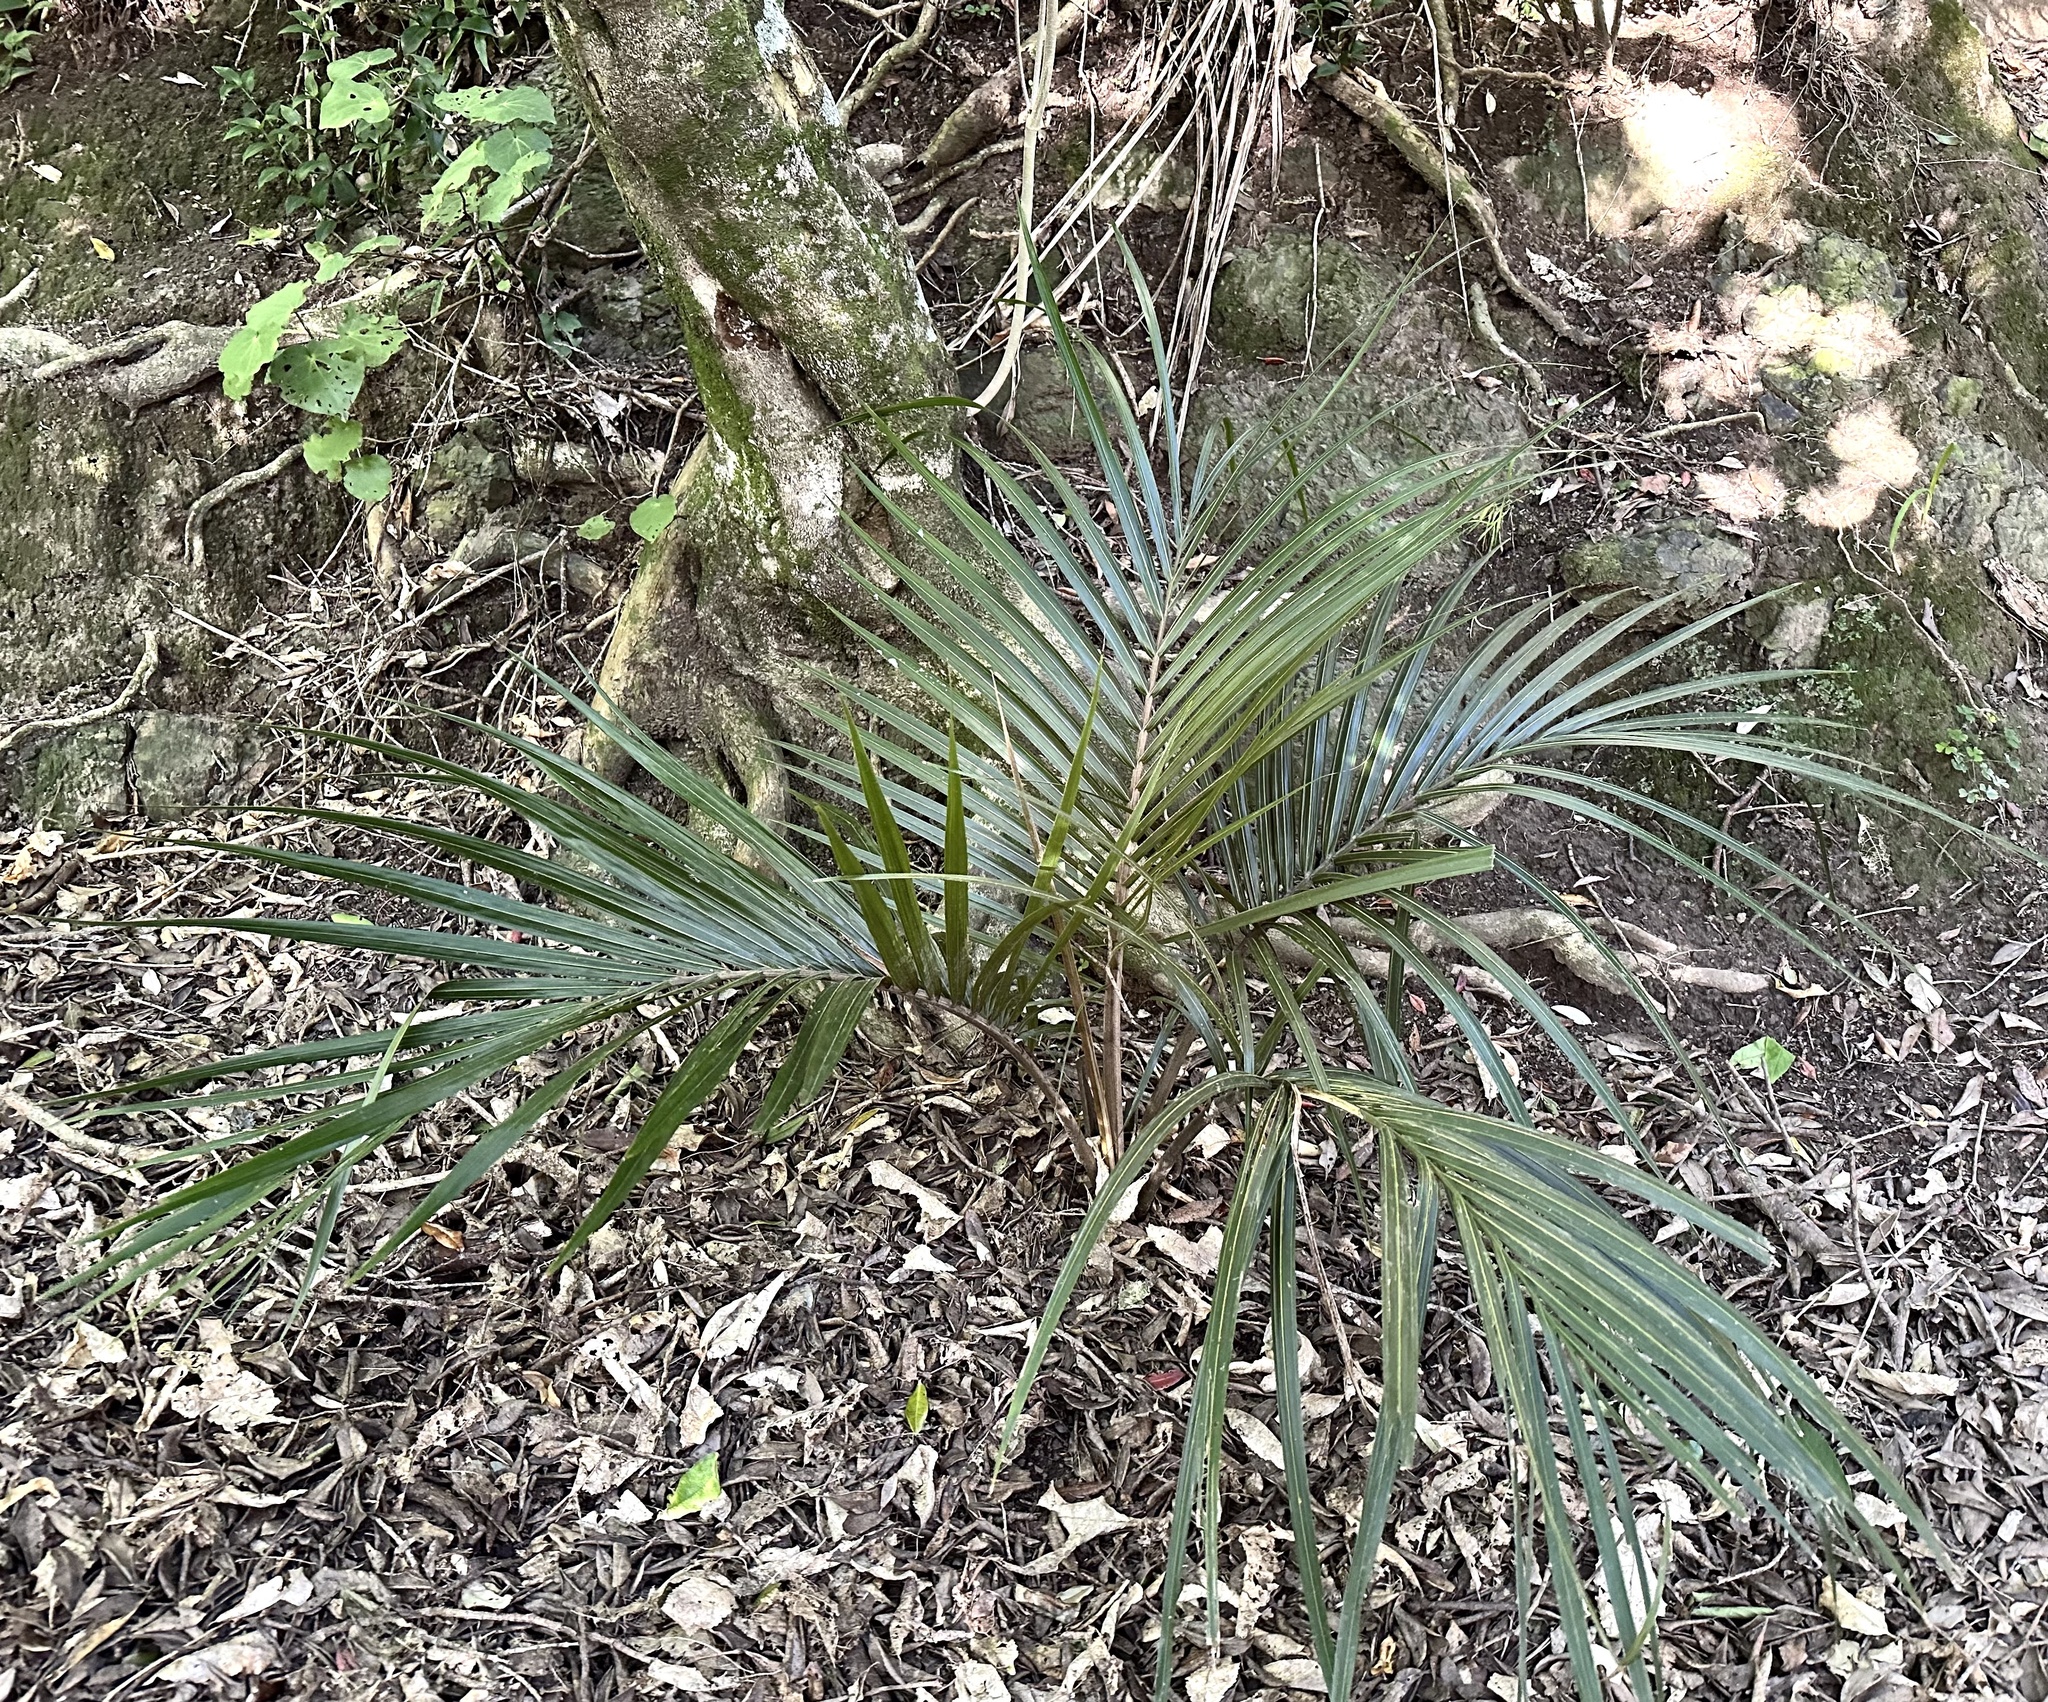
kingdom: Plantae
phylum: Tracheophyta
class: Liliopsida
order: Arecales
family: Arecaceae
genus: Rhopalostylis
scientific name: Rhopalostylis sapida
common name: Feather-duster palm
